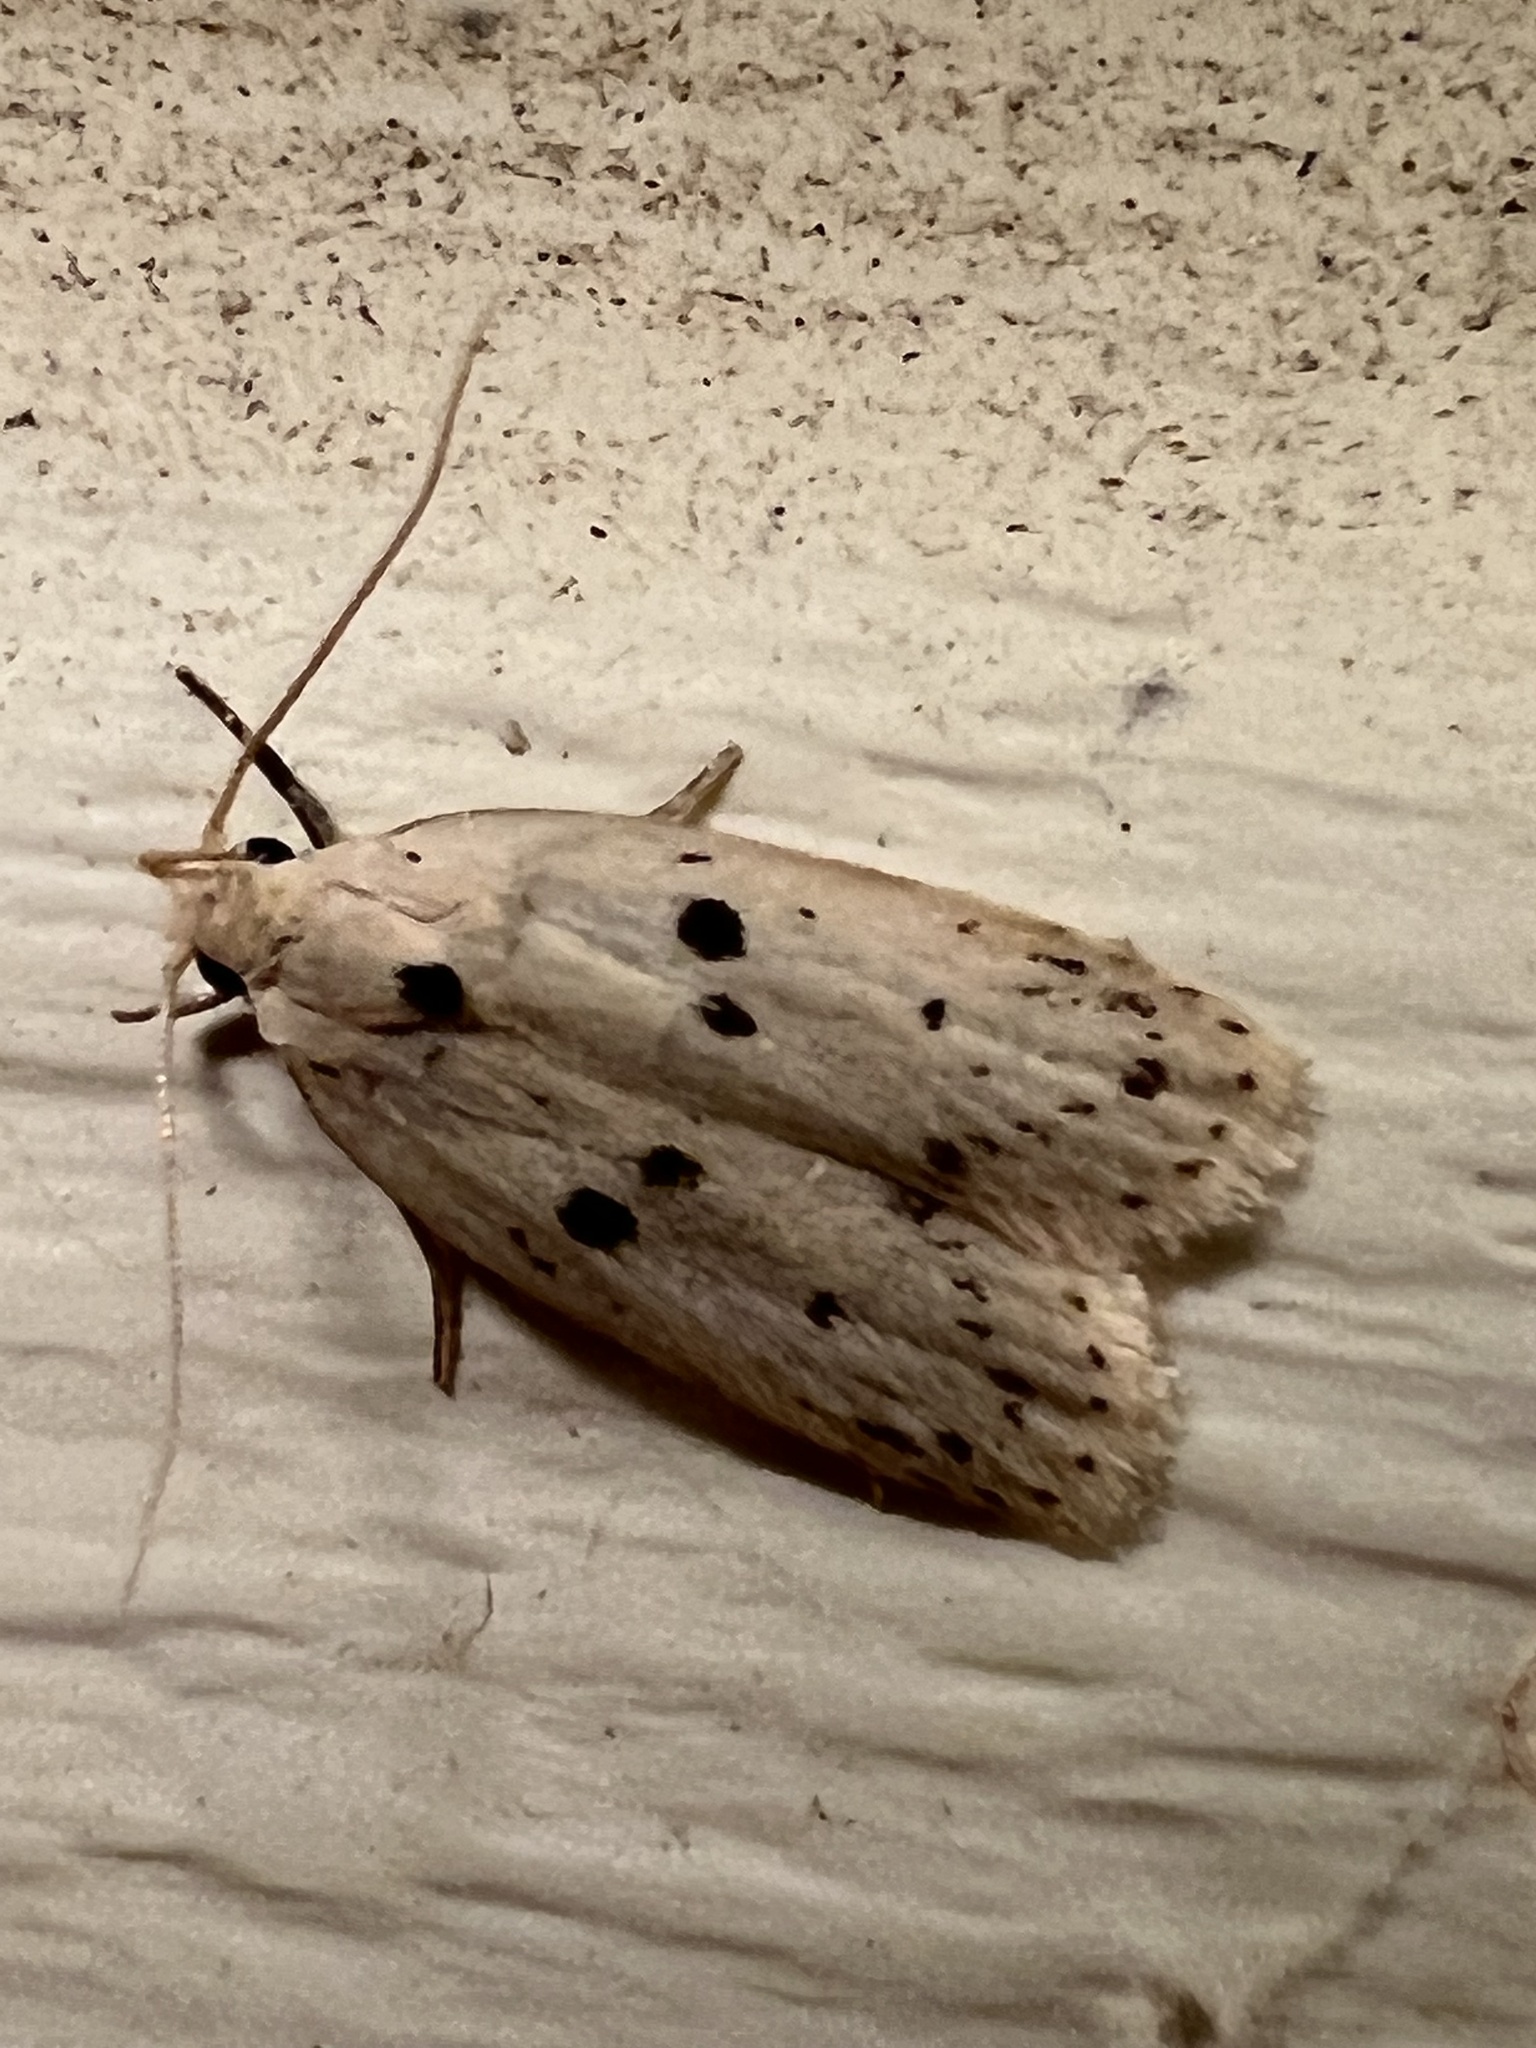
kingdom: Animalia
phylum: Arthropoda
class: Insecta
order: Lepidoptera
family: Peleopodidae
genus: Scythropiodes
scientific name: Scythropiodes issikii
